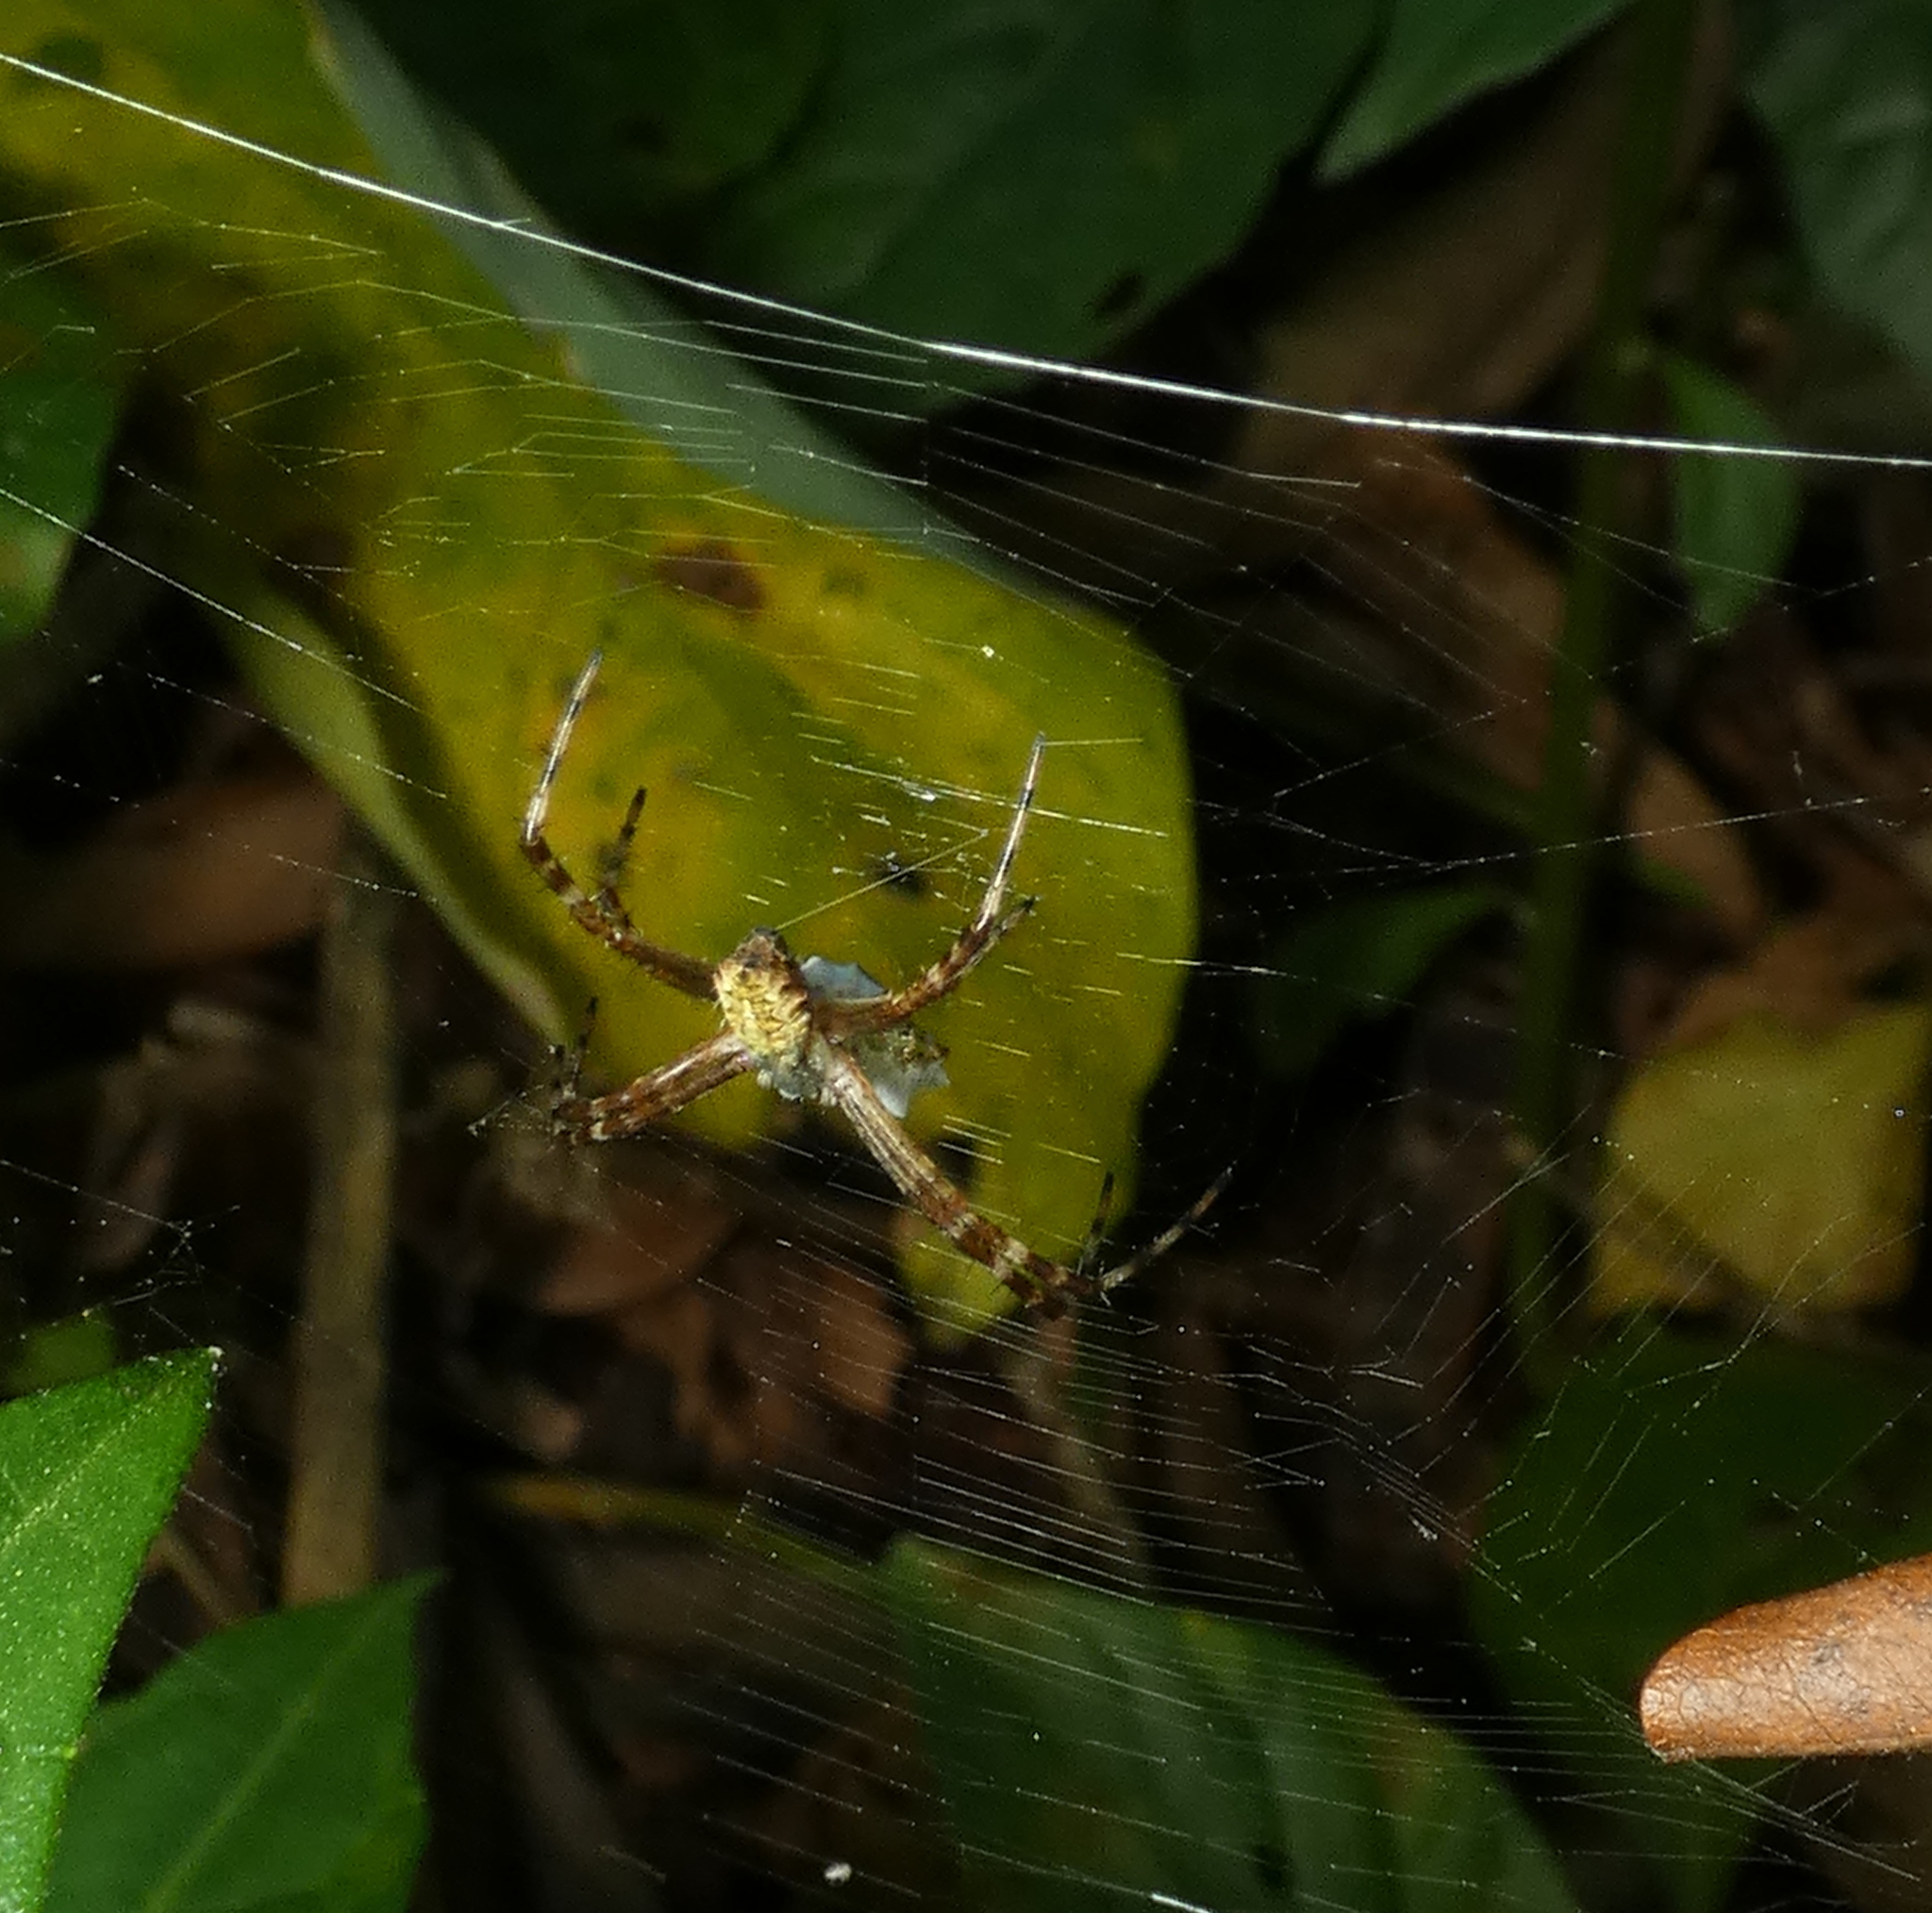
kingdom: Animalia
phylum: Arthropoda
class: Arachnida
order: Araneae
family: Araneidae
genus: Argiope
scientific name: Argiope argentata
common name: Orb weavers
